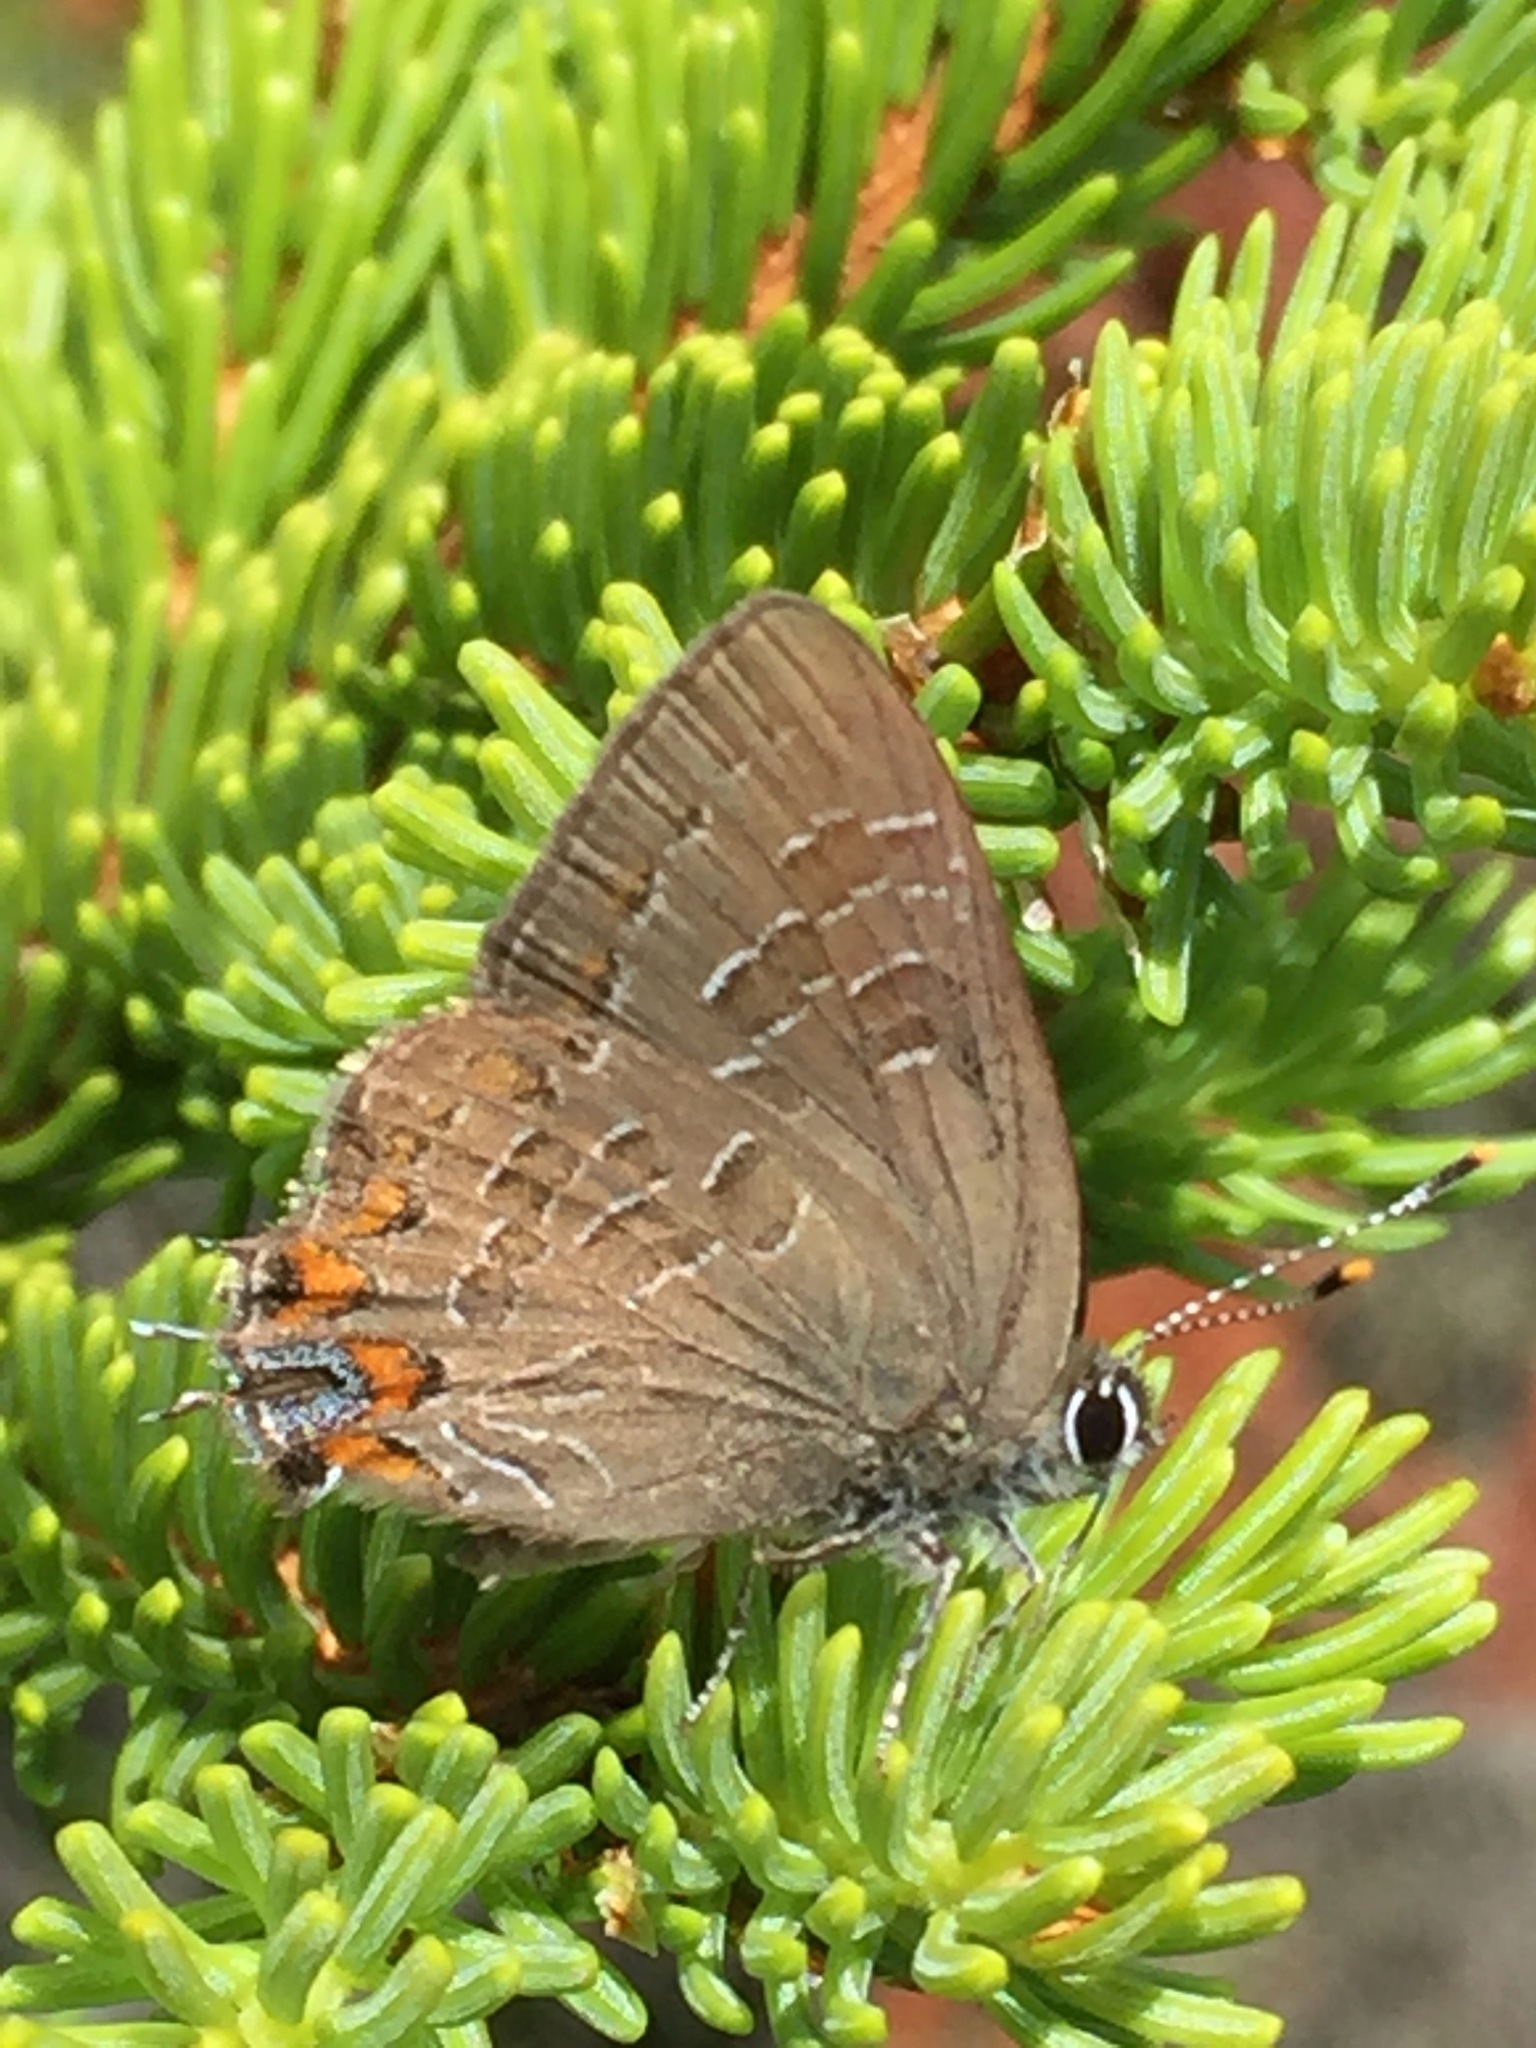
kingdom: Animalia
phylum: Arthropoda
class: Insecta
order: Lepidoptera
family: Lycaenidae
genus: Satyrium
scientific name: Satyrium liparops
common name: Striped hairstreak
